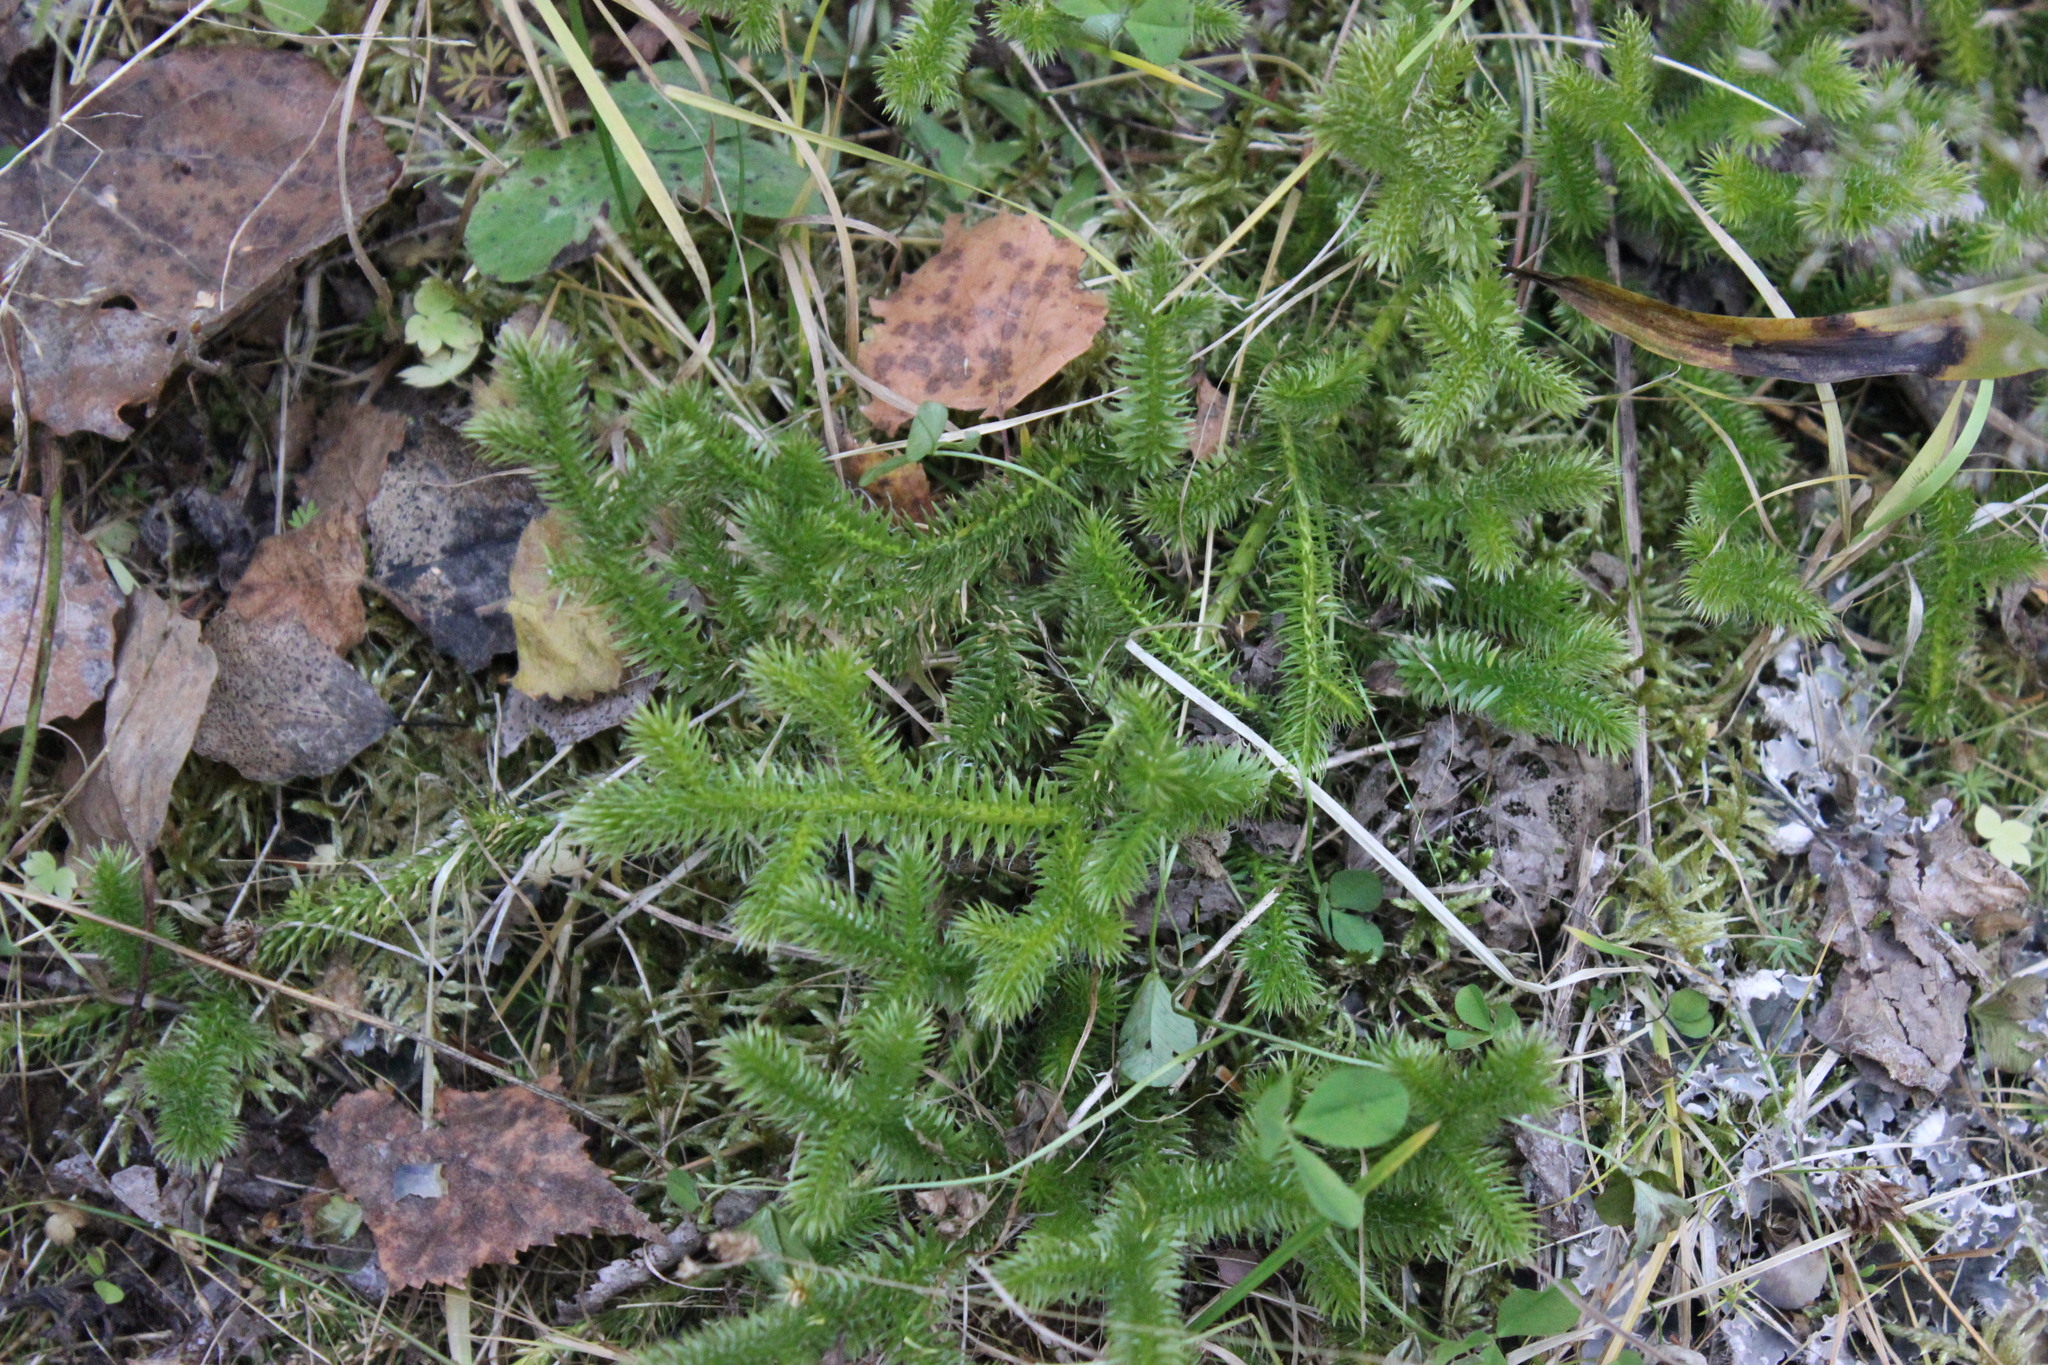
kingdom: Plantae
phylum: Tracheophyta
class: Lycopodiopsida
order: Lycopodiales
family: Lycopodiaceae
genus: Lycopodium
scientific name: Lycopodium clavatum
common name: Stag's-horn clubmoss
